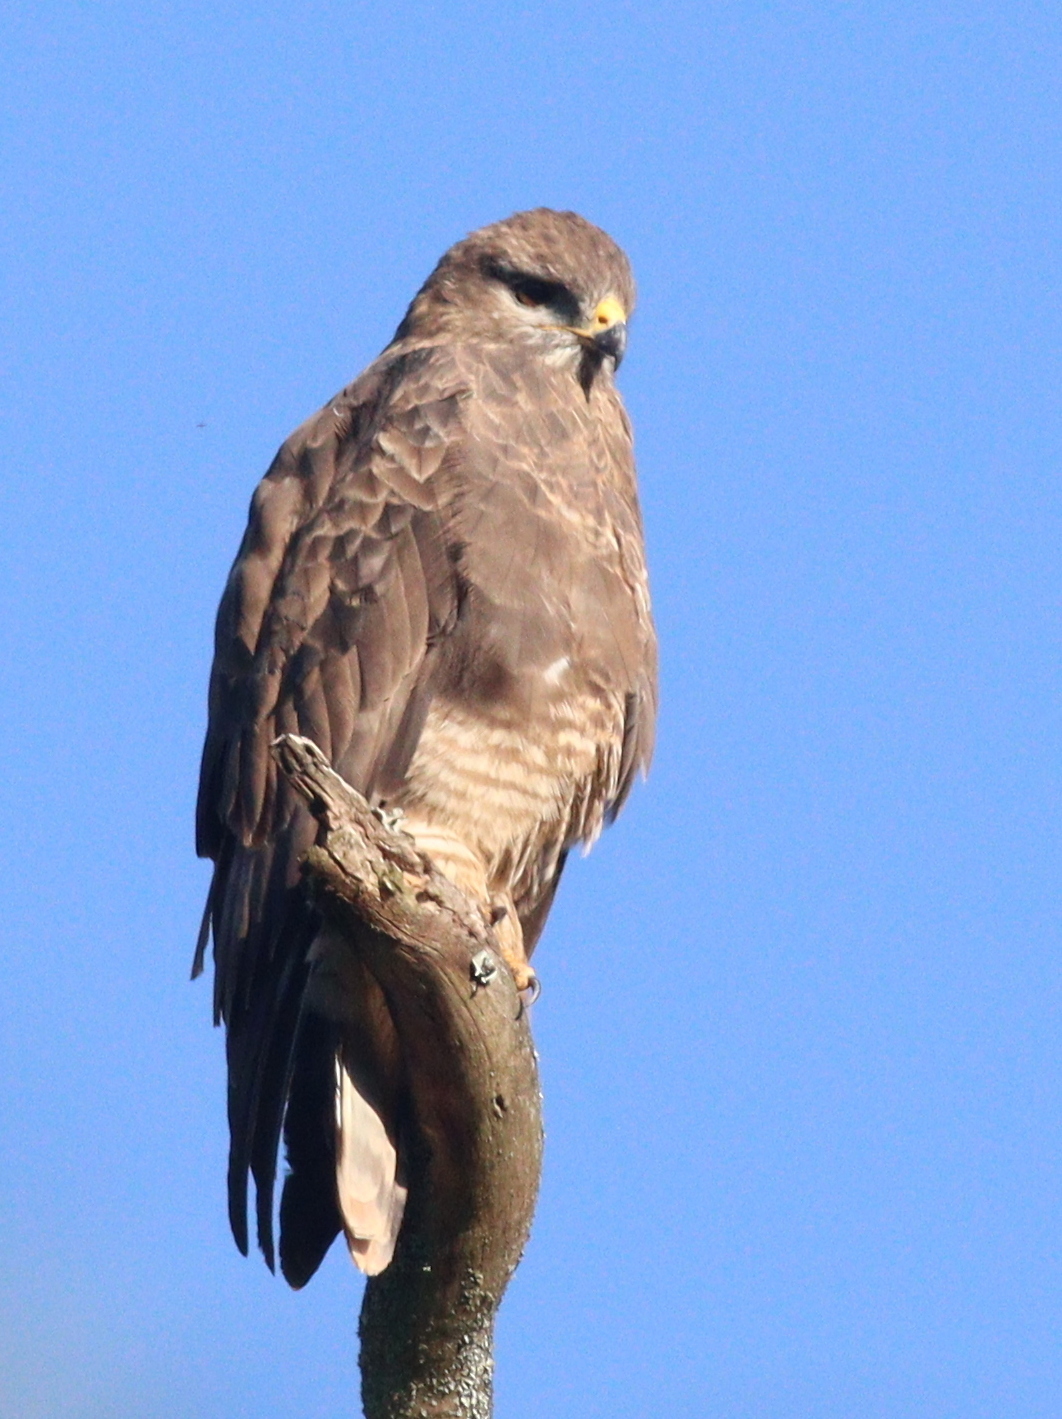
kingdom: Animalia
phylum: Chordata
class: Aves
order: Accipitriformes
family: Accipitridae
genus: Buteo
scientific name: Buteo buteo
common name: Common buzzard
